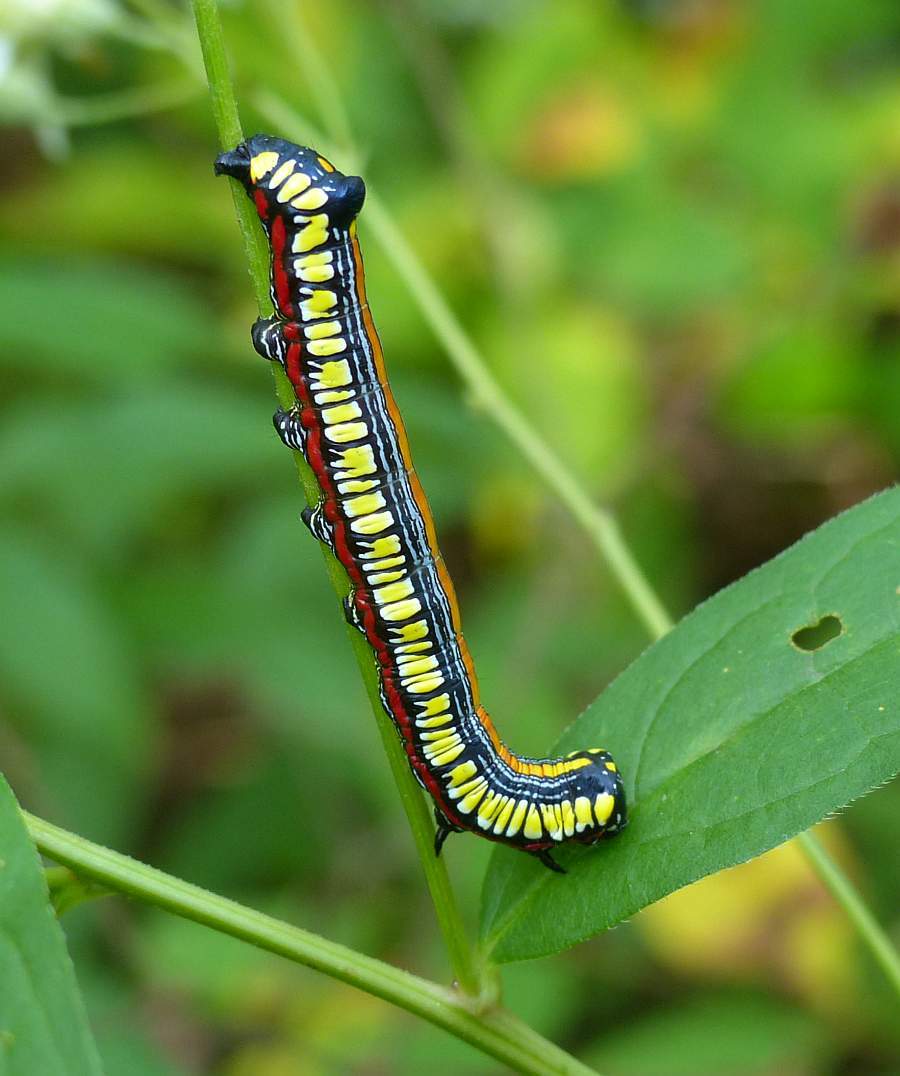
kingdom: Animalia
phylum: Arthropoda
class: Insecta
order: Lepidoptera
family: Noctuidae
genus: Cucullia
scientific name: Cucullia convexipennis
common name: Brown-hooded owlet
